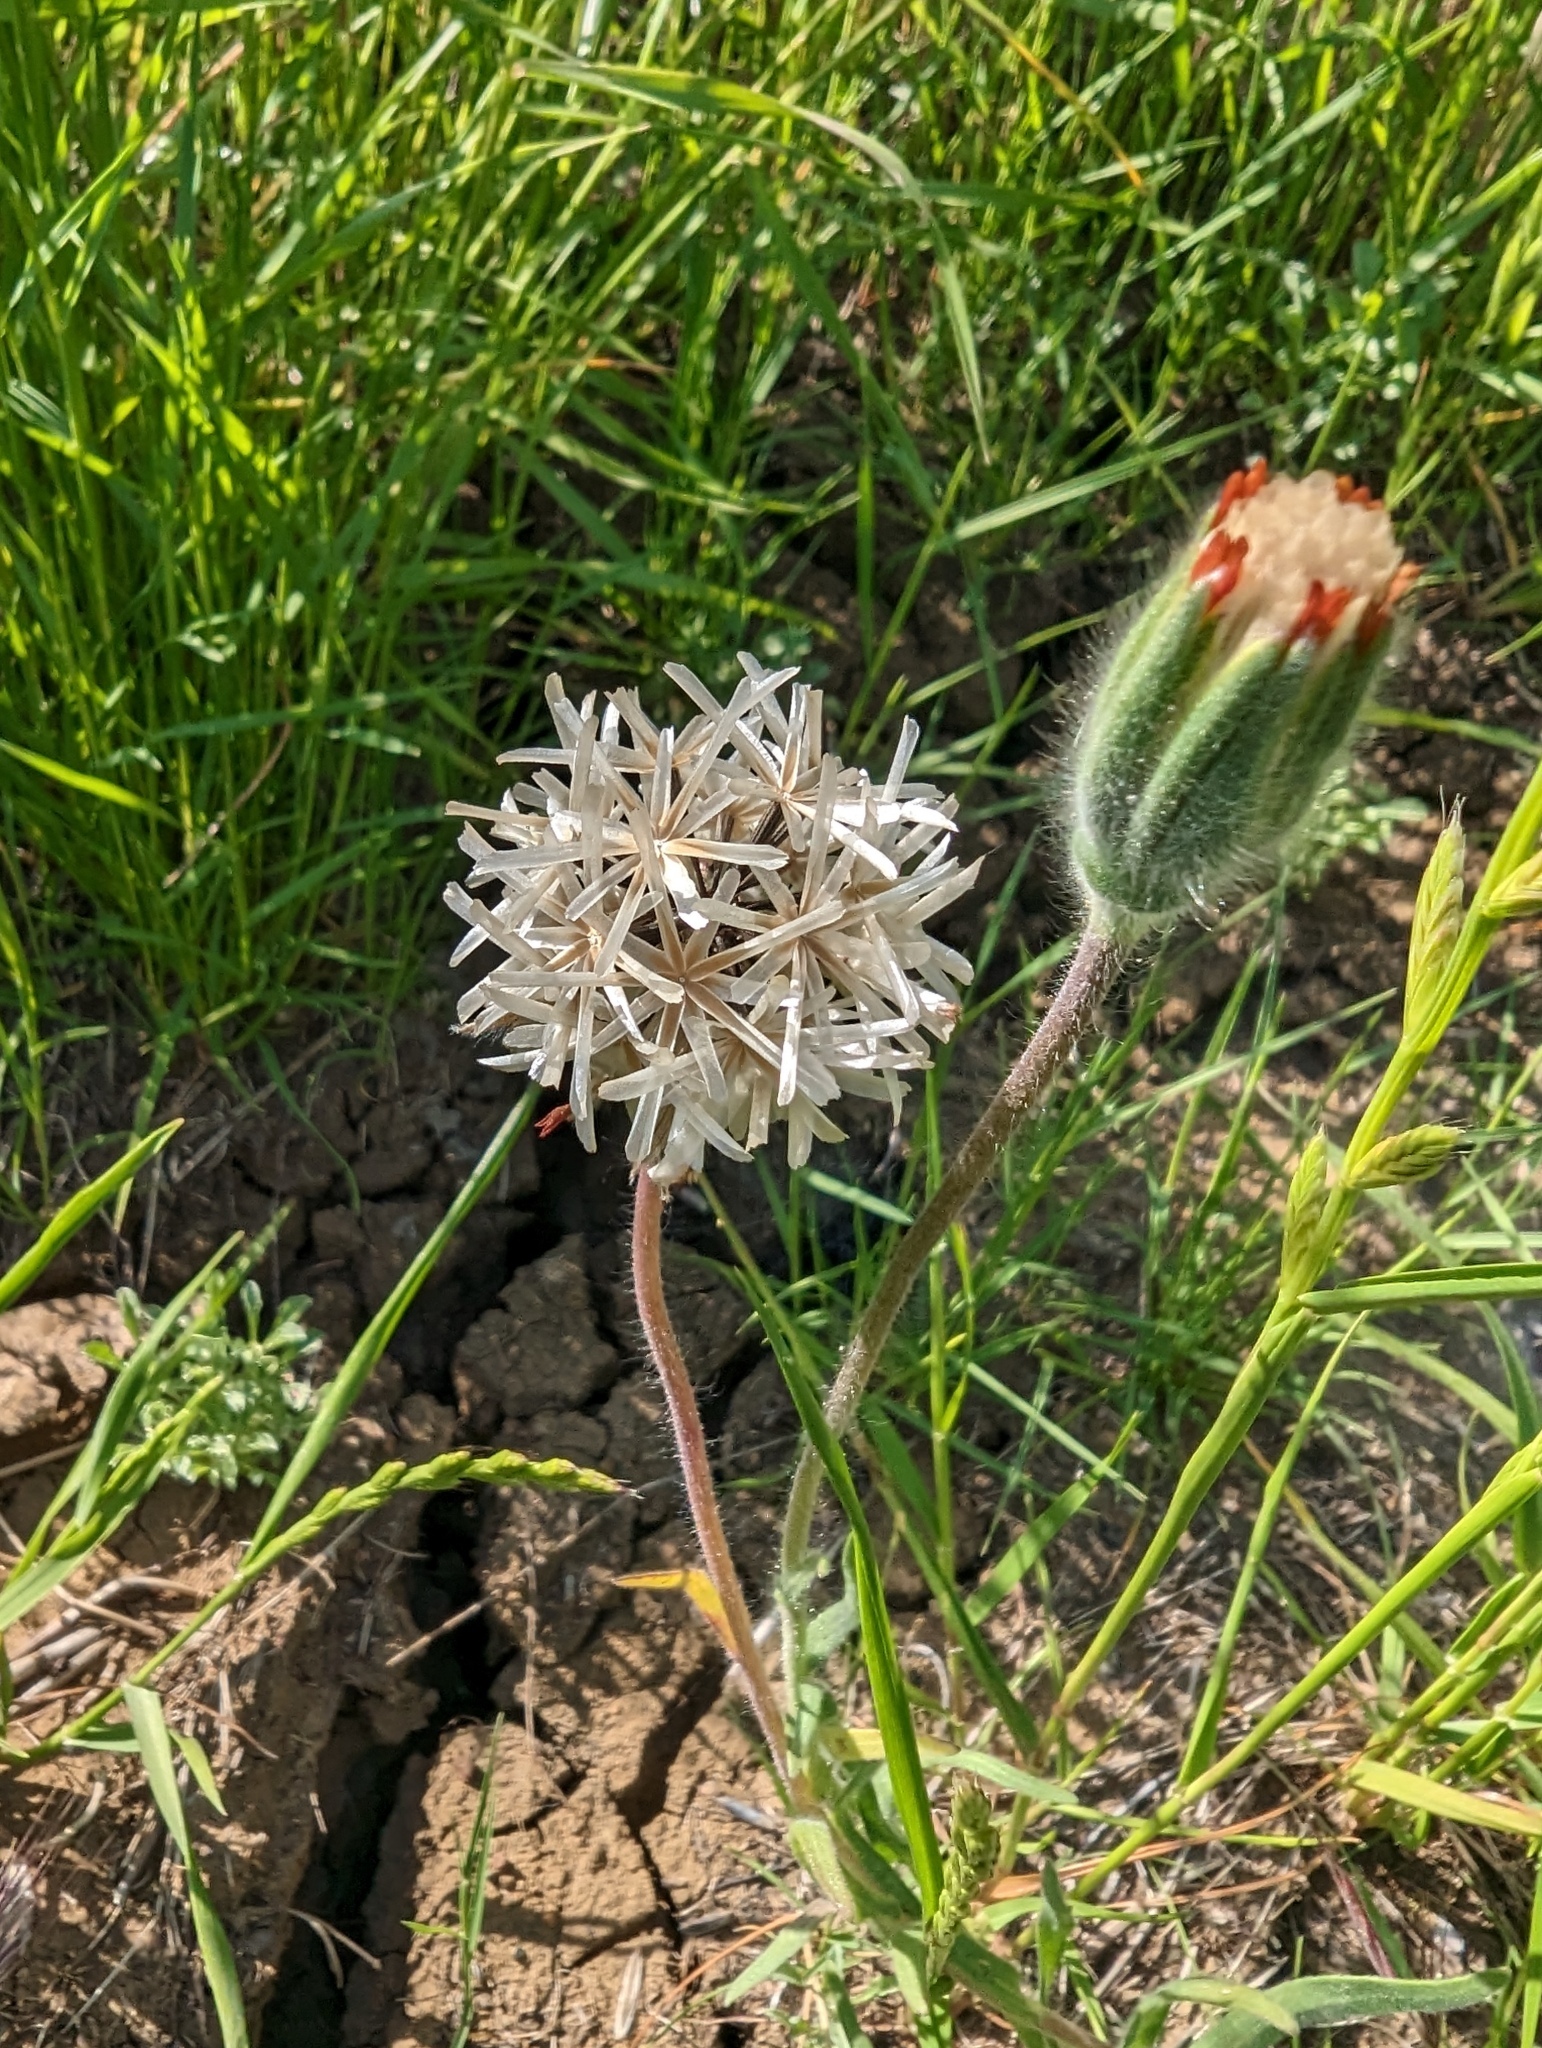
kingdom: Plantae
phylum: Tracheophyta
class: Magnoliopsida
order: Asterales
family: Asteraceae
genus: Achyrachaena
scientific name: Achyrachaena mollis
